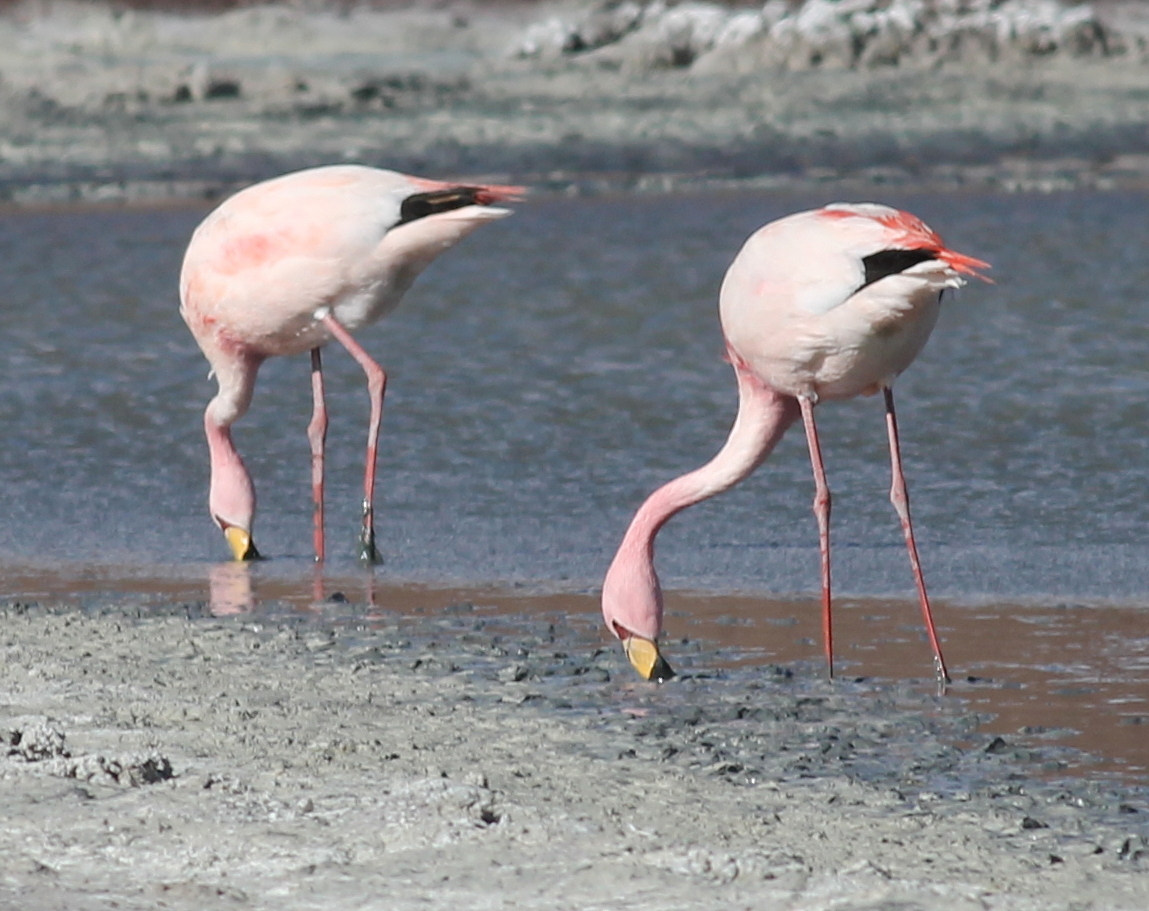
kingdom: Animalia
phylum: Chordata
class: Aves
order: Phoenicopteriformes
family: Phoenicopteridae
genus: Phoenicoparrus
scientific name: Phoenicoparrus jamesi
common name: James's flamingo
